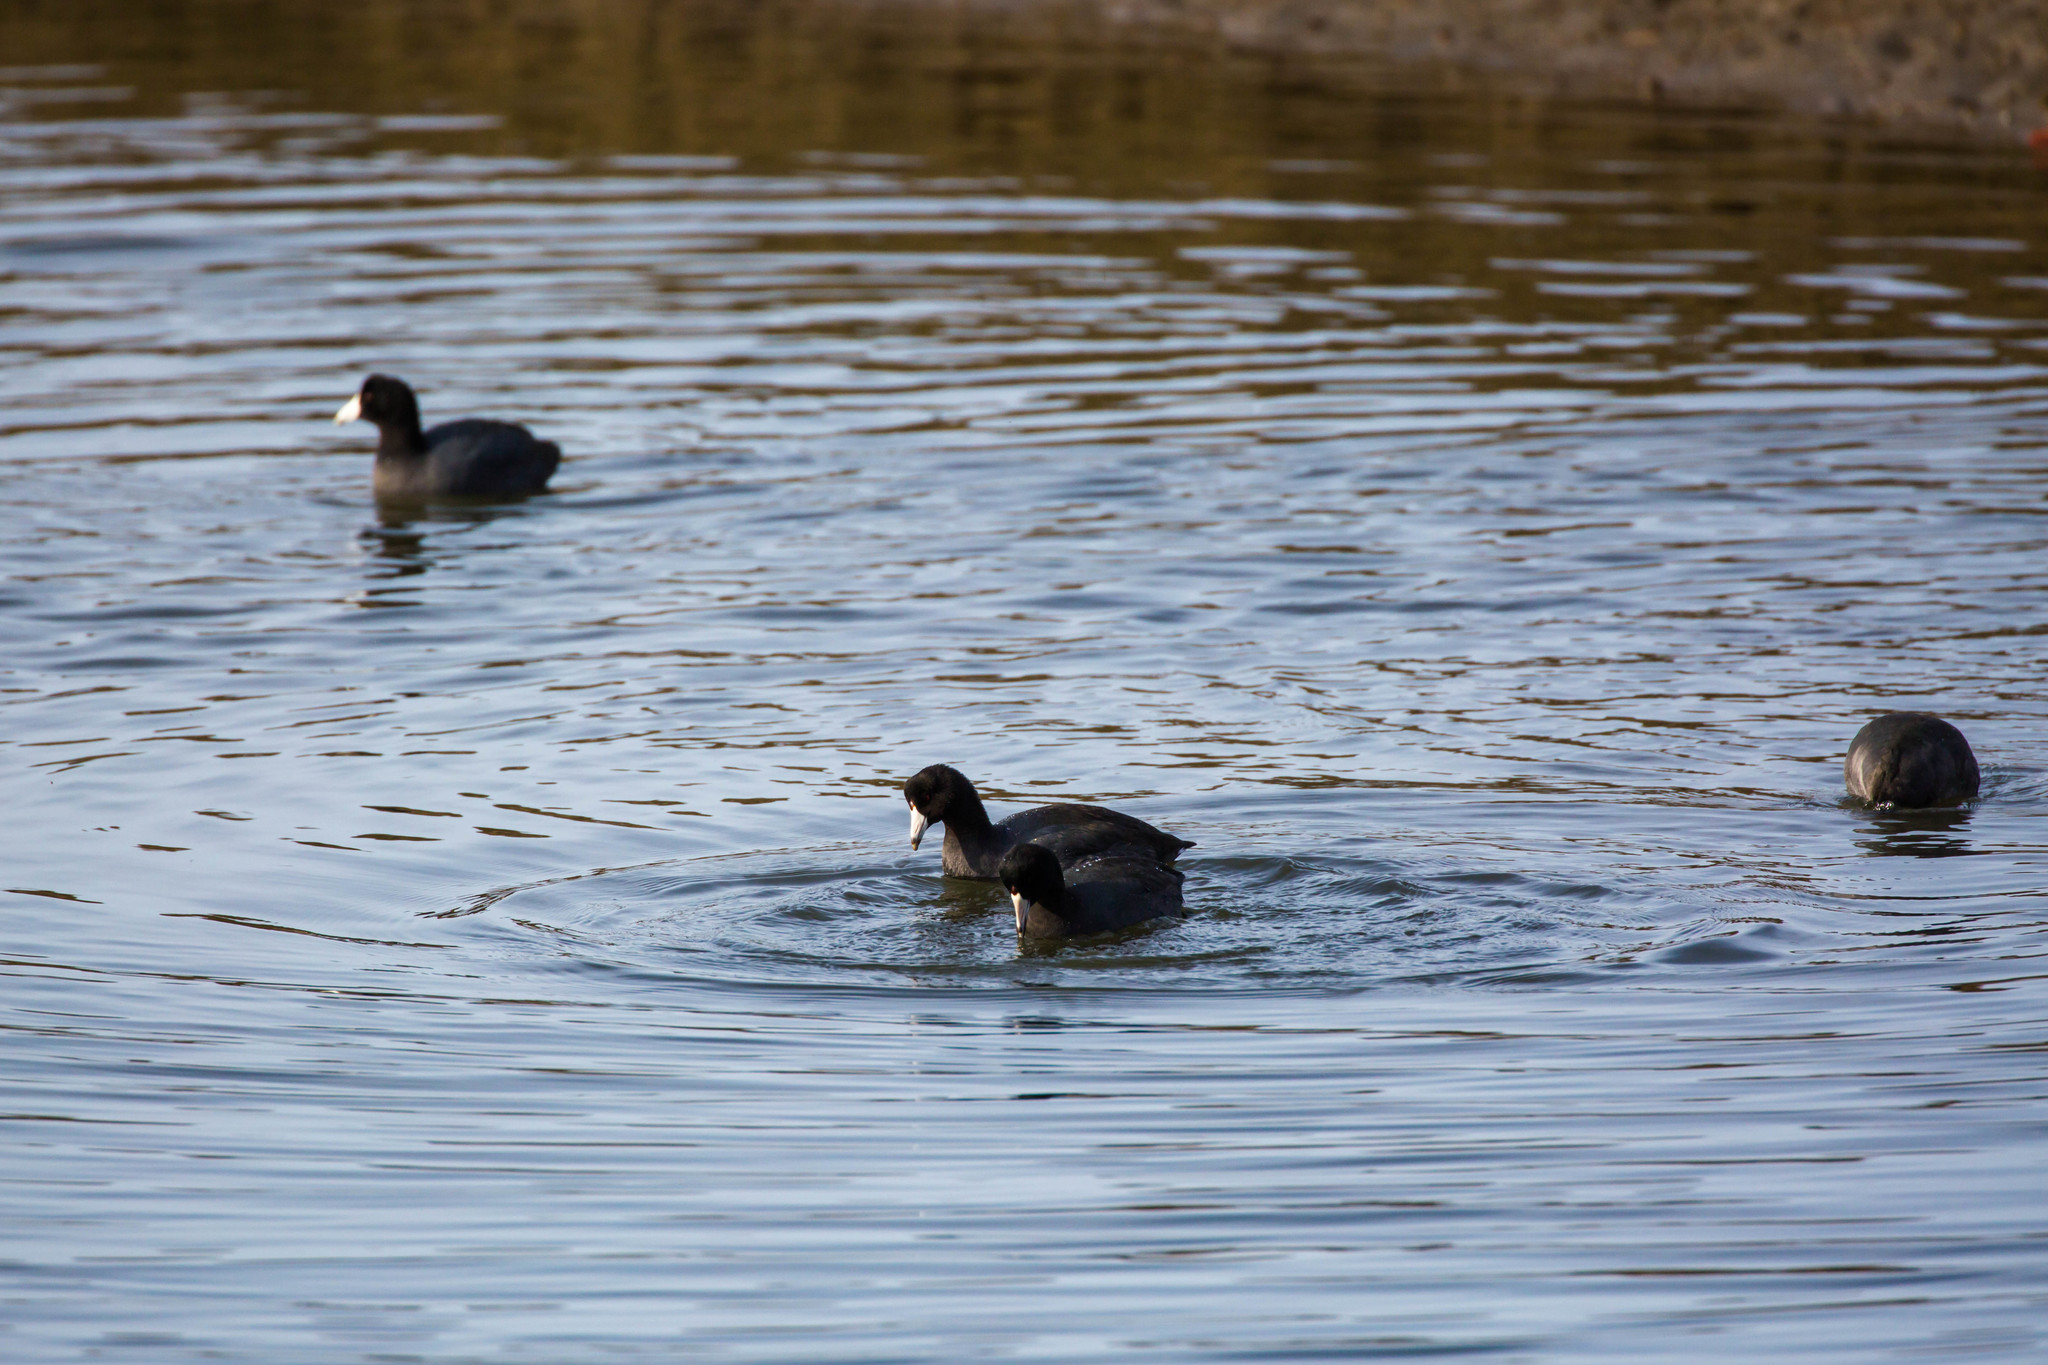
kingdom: Animalia
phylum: Chordata
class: Aves
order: Gruiformes
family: Rallidae
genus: Fulica
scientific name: Fulica americana
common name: American coot
